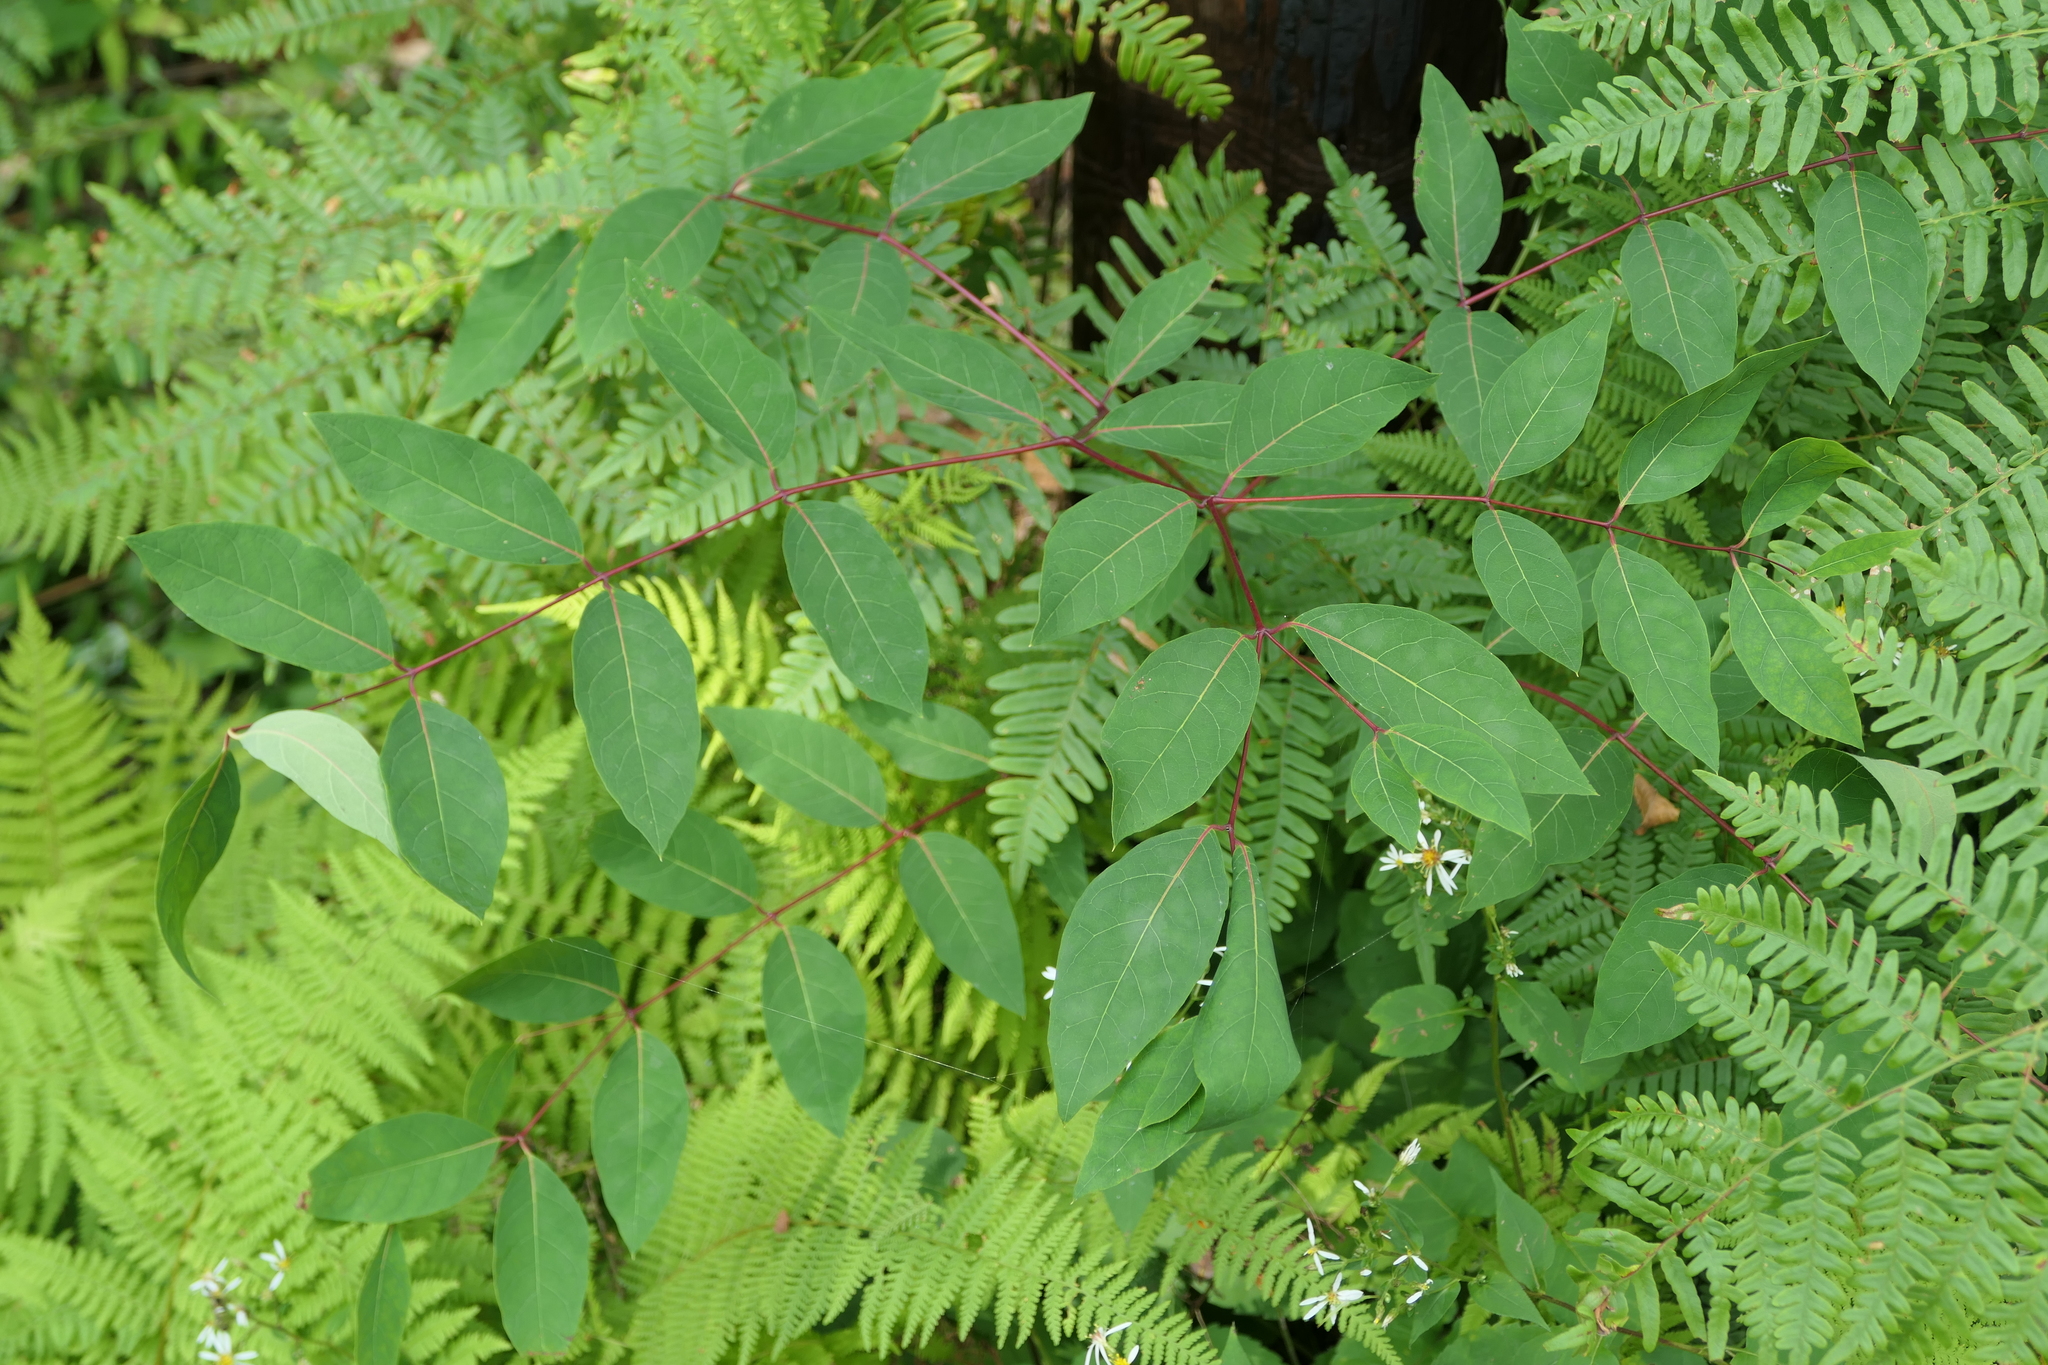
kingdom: Plantae
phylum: Tracheophyta
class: Magnoliopsida
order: Gentianales
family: Apocynaceae
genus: Apocynum
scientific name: Apocynum androsaemifolium
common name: Spreading dogbane
